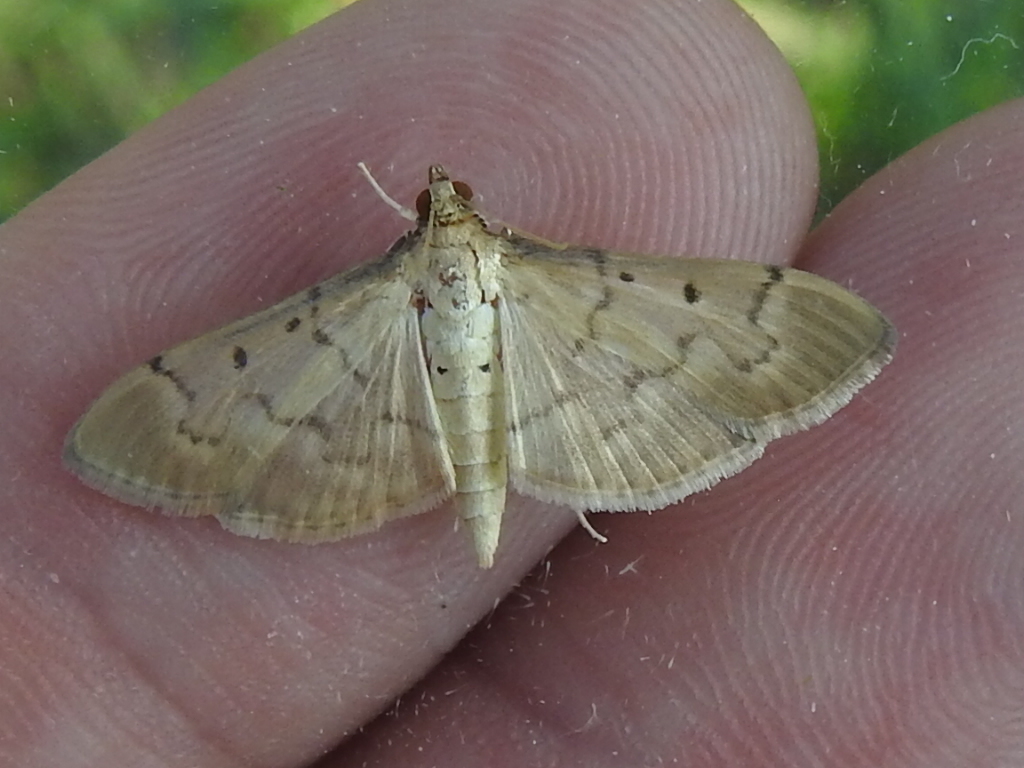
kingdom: Animalia
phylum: Arthropoda
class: Insecta
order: Lepidoptera
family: Crambidae
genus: Herpetogramma
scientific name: Herpetogramma bipunctalis
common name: Southern beet webworm
